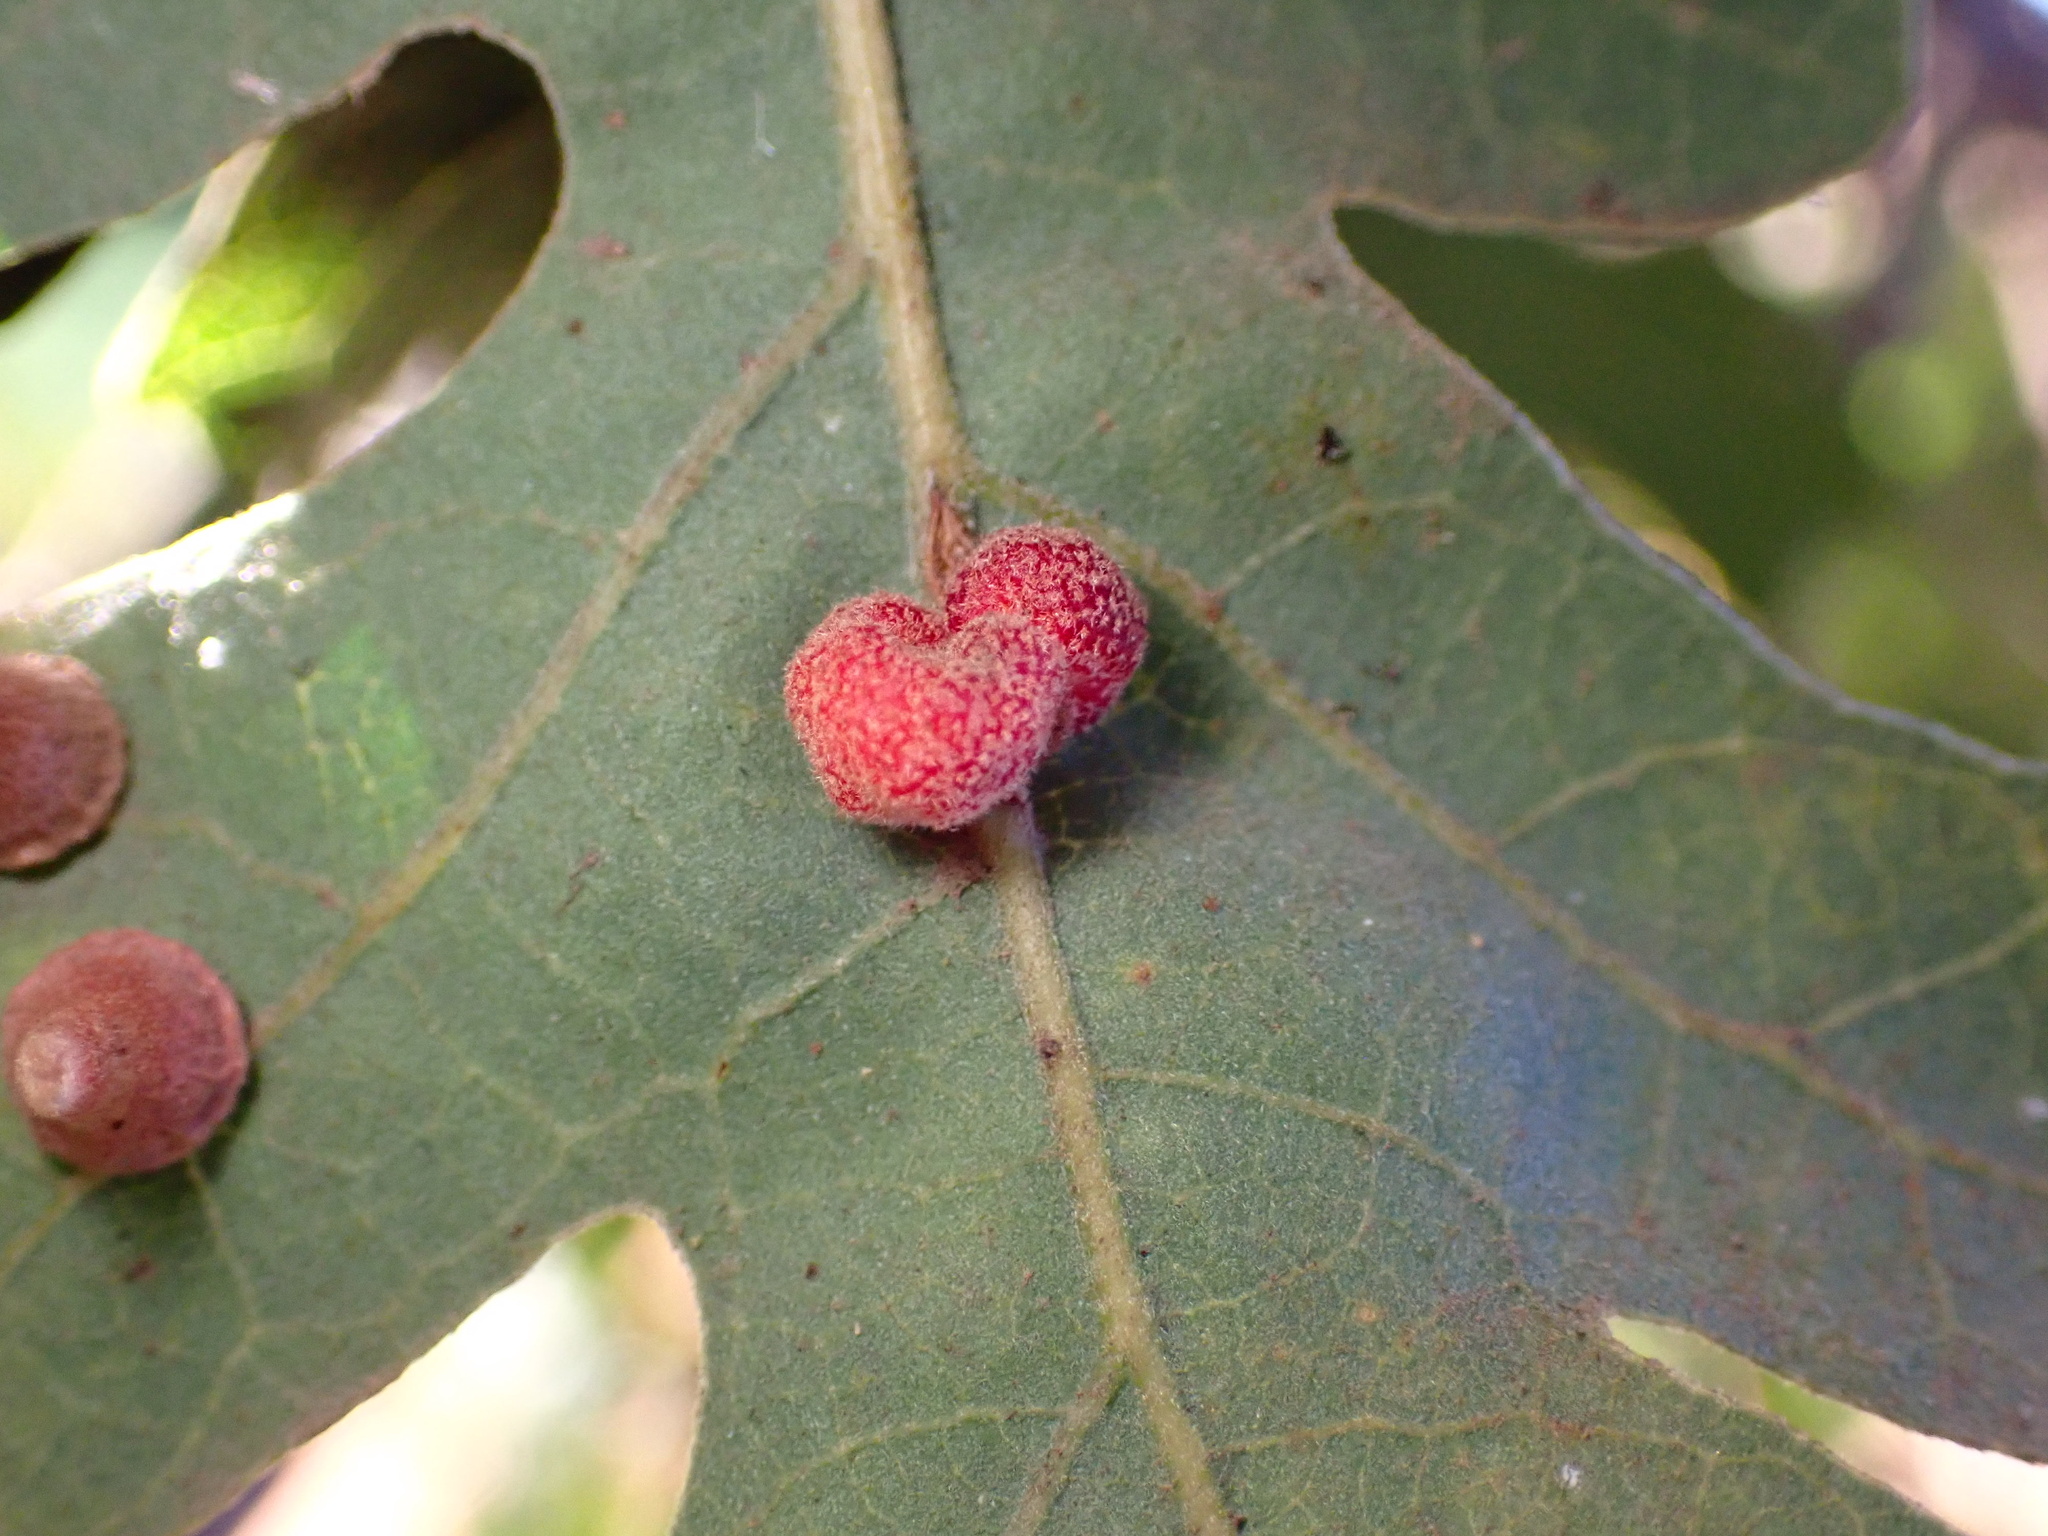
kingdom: Animalia
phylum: Arthropoda
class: Insecta
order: Hymenoptera
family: Cynipidae
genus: Andricus
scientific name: Andricus
